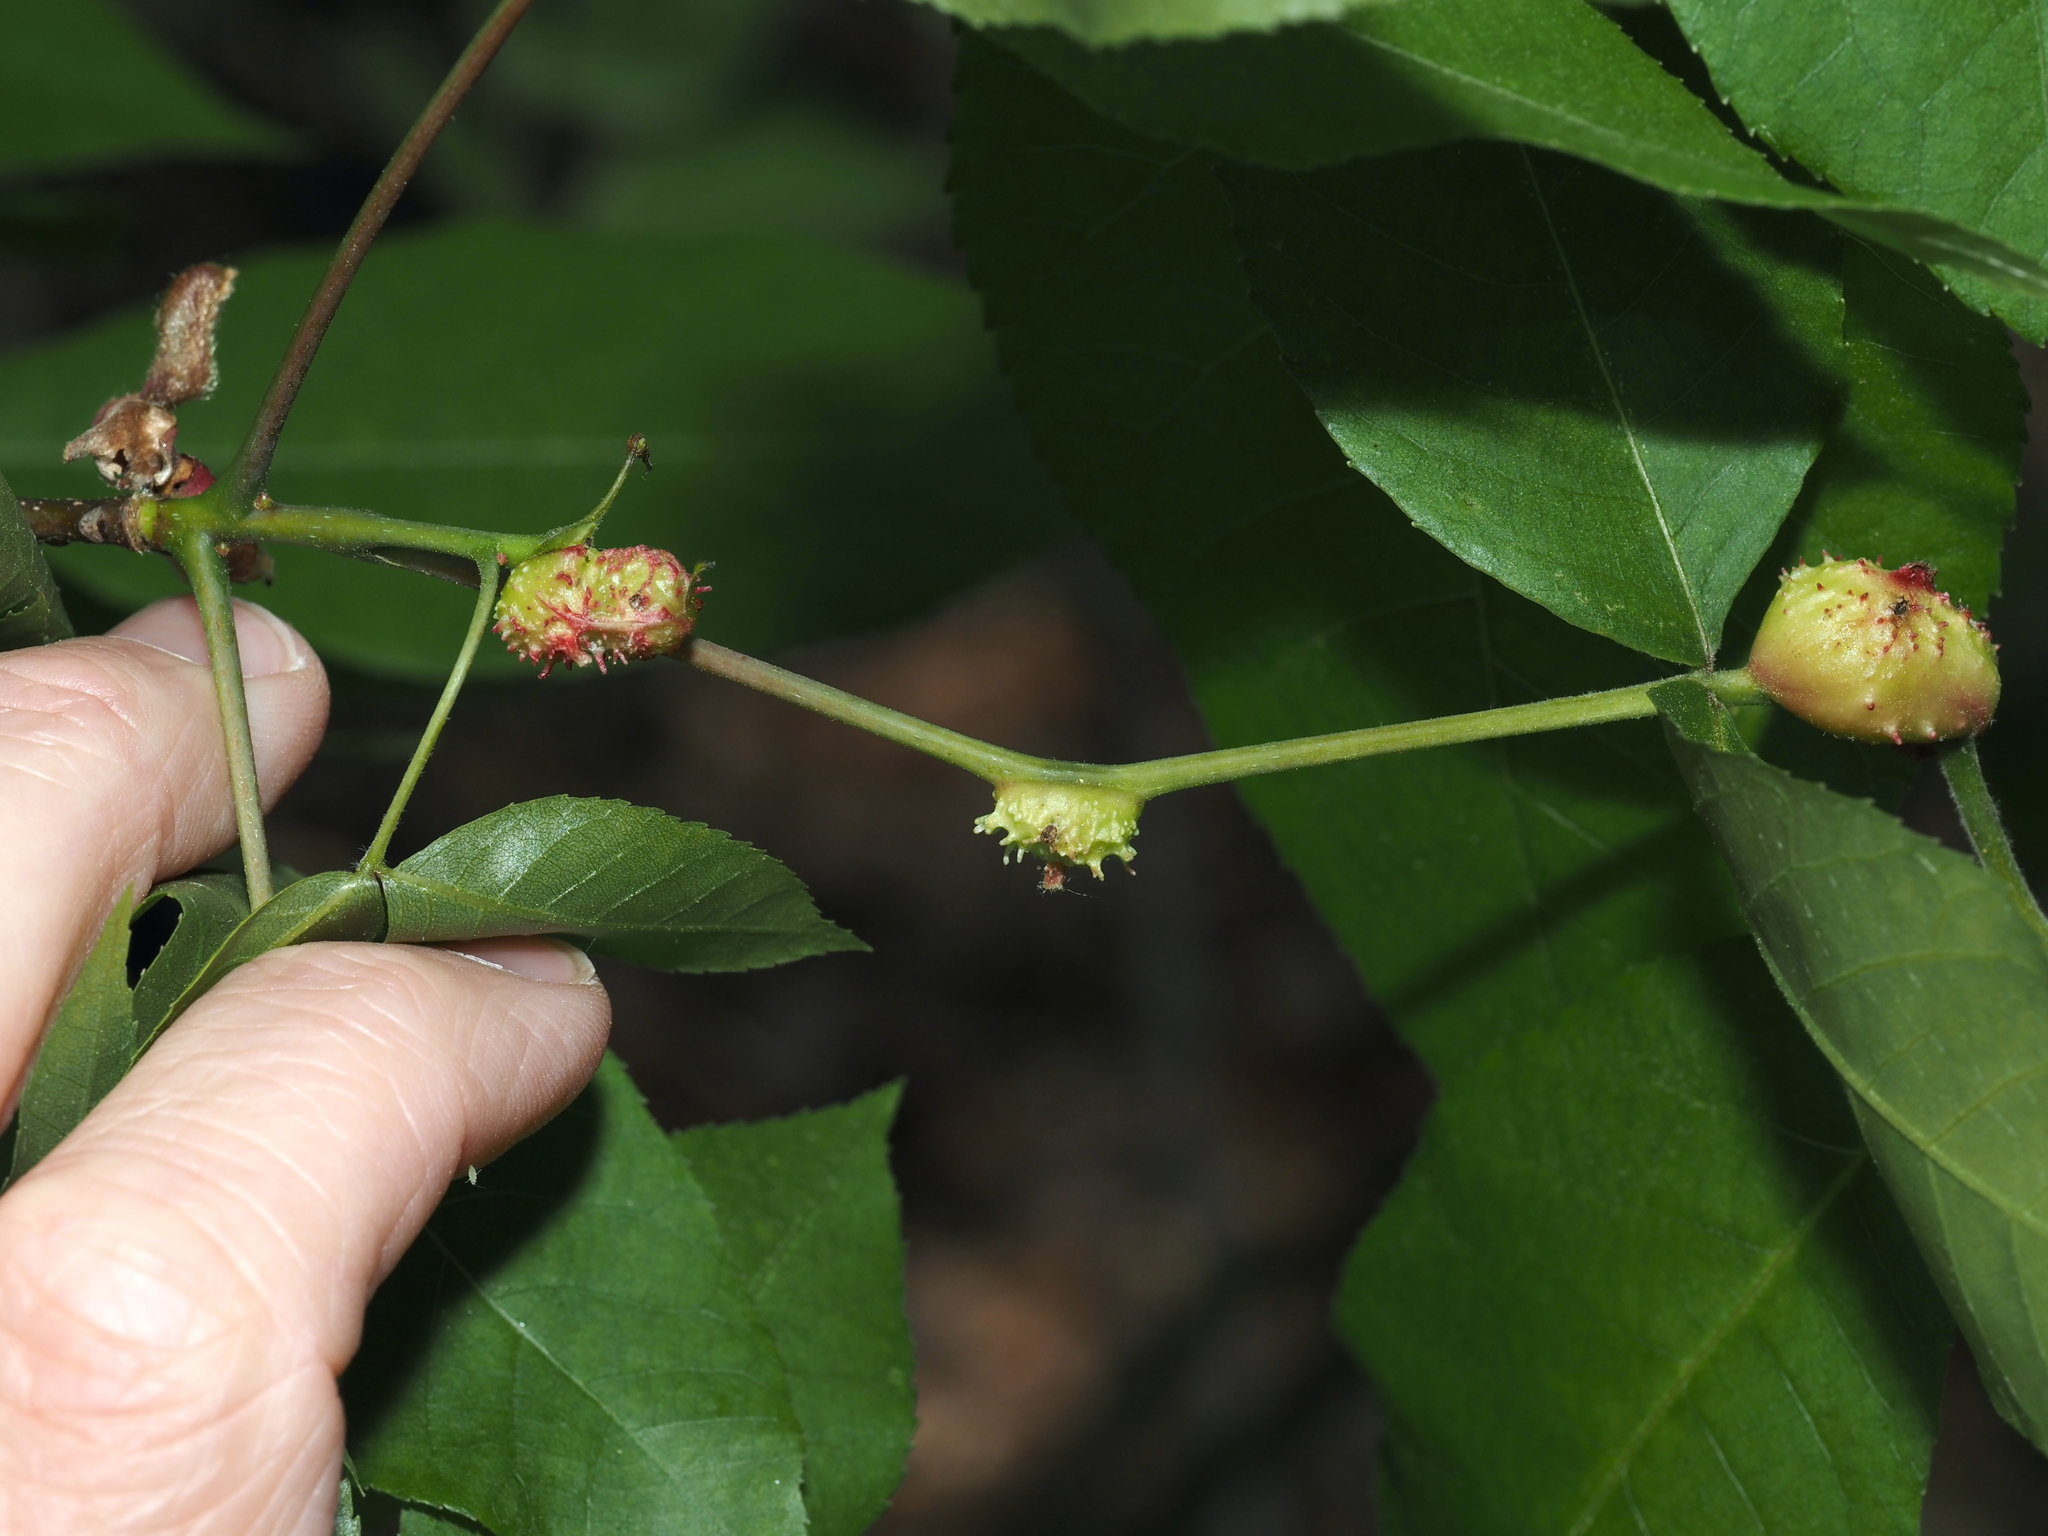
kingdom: Animalia
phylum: Arthropoda
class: Insecta
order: Hemiptera
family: Phylloxeridae
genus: Phylloxera
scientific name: Phylloxera spinosa
